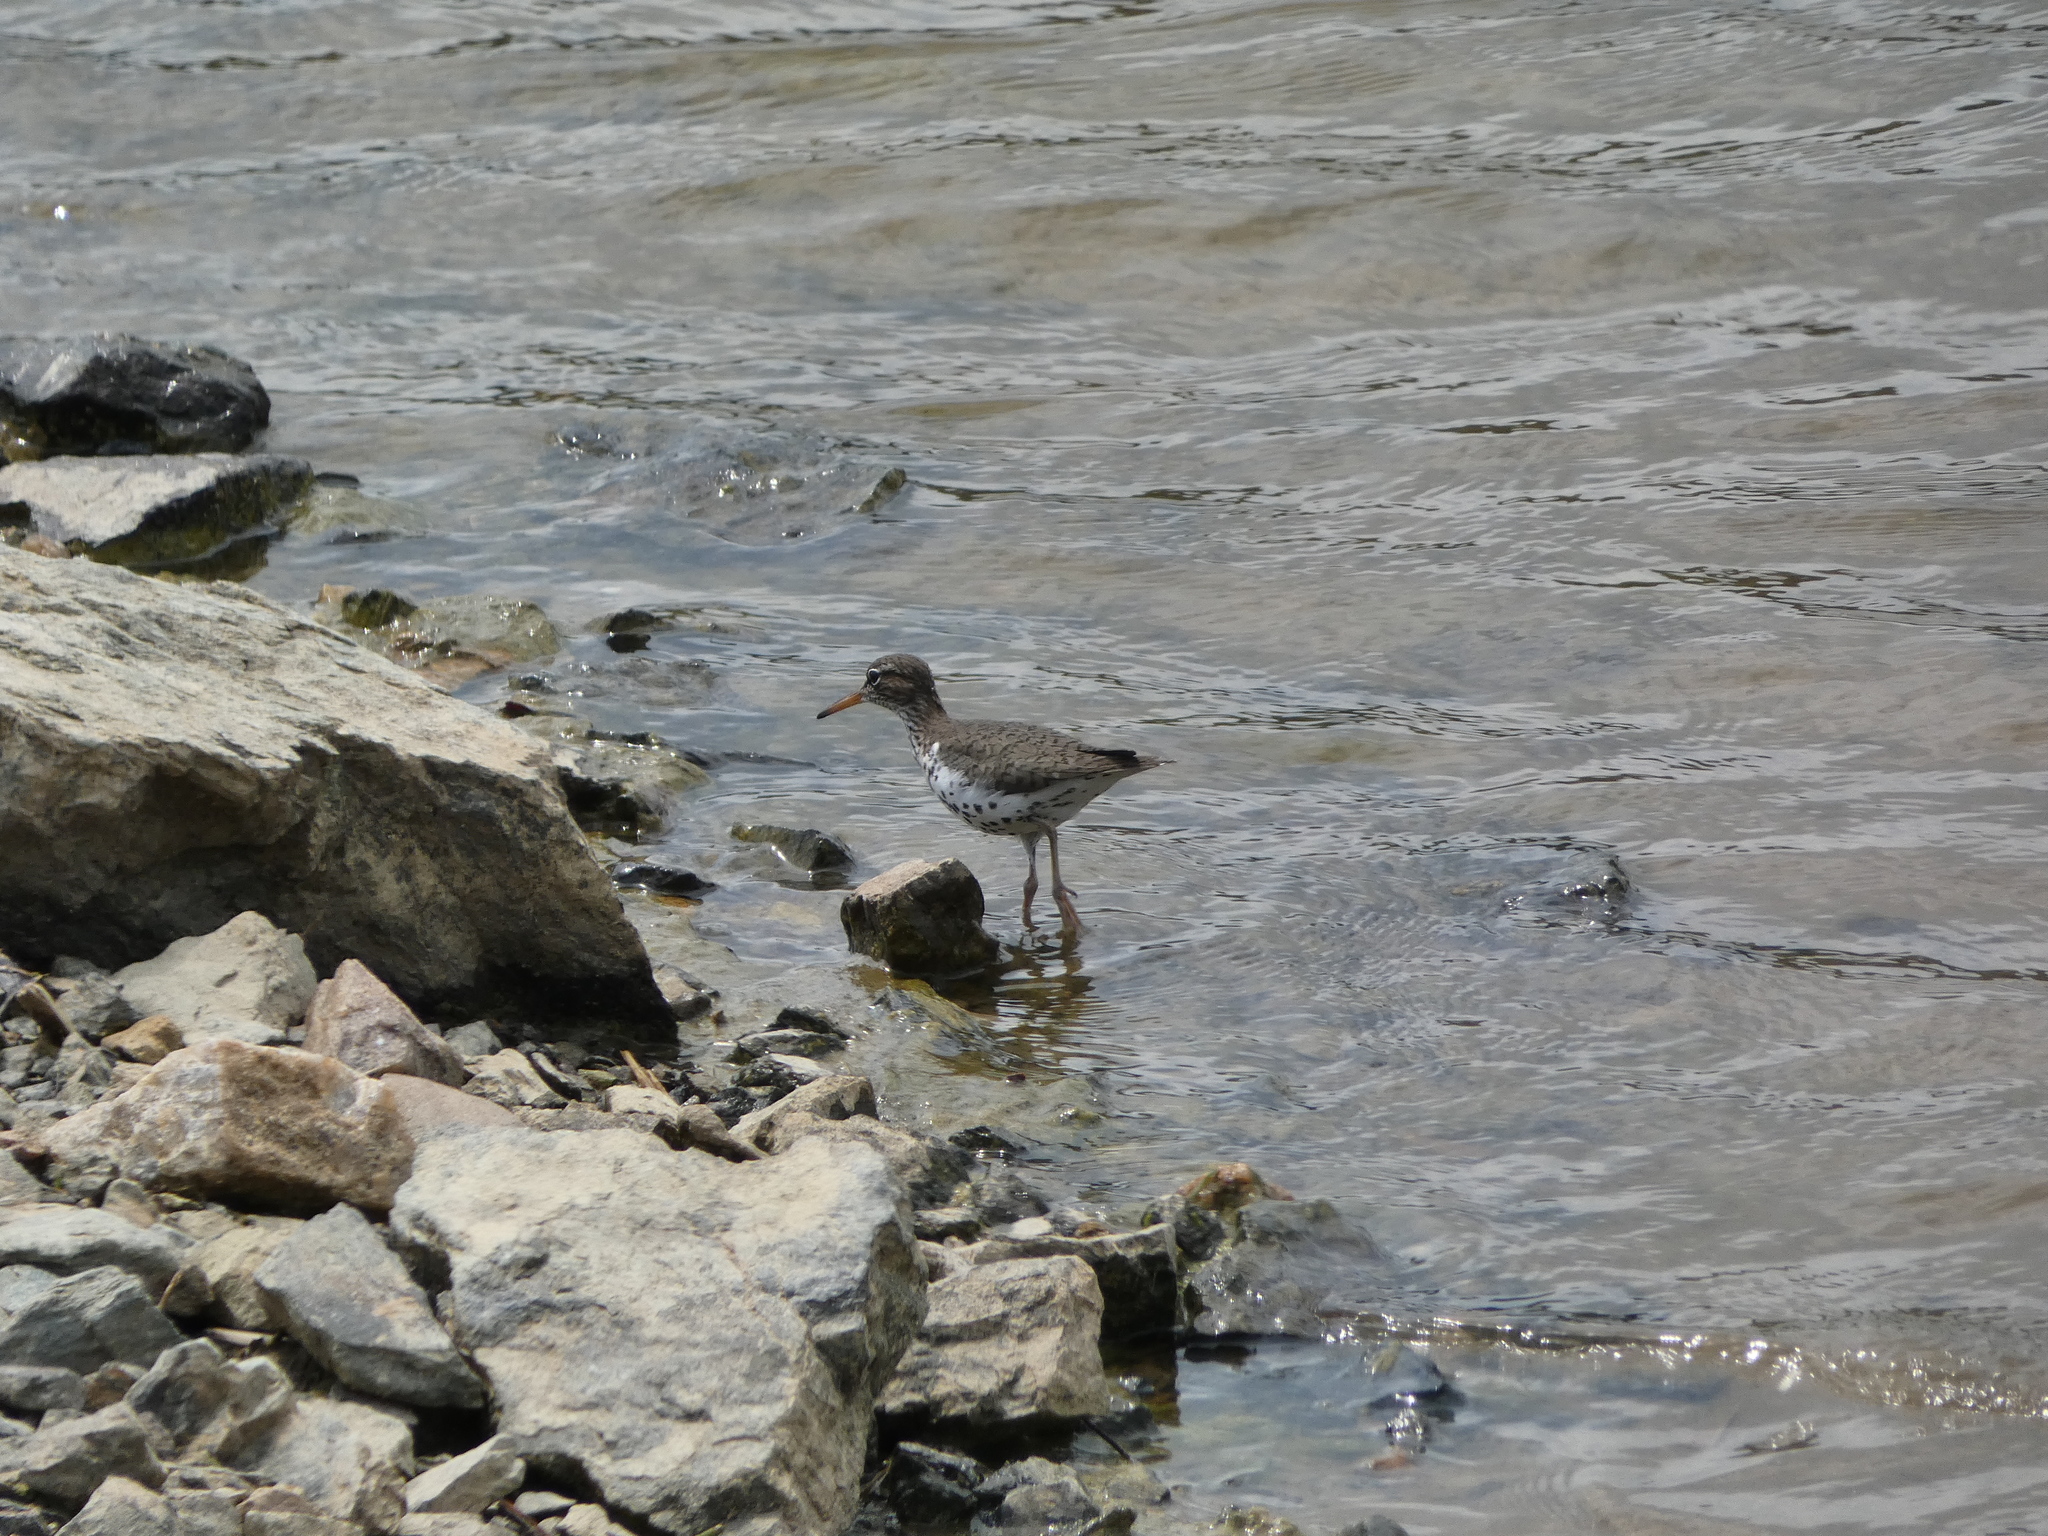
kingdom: Animalia
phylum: Chordata
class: Aves
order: Charadriiformes
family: Scolopacidae
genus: Actitis
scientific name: Actitis macularius
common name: Spotted sandpiper
